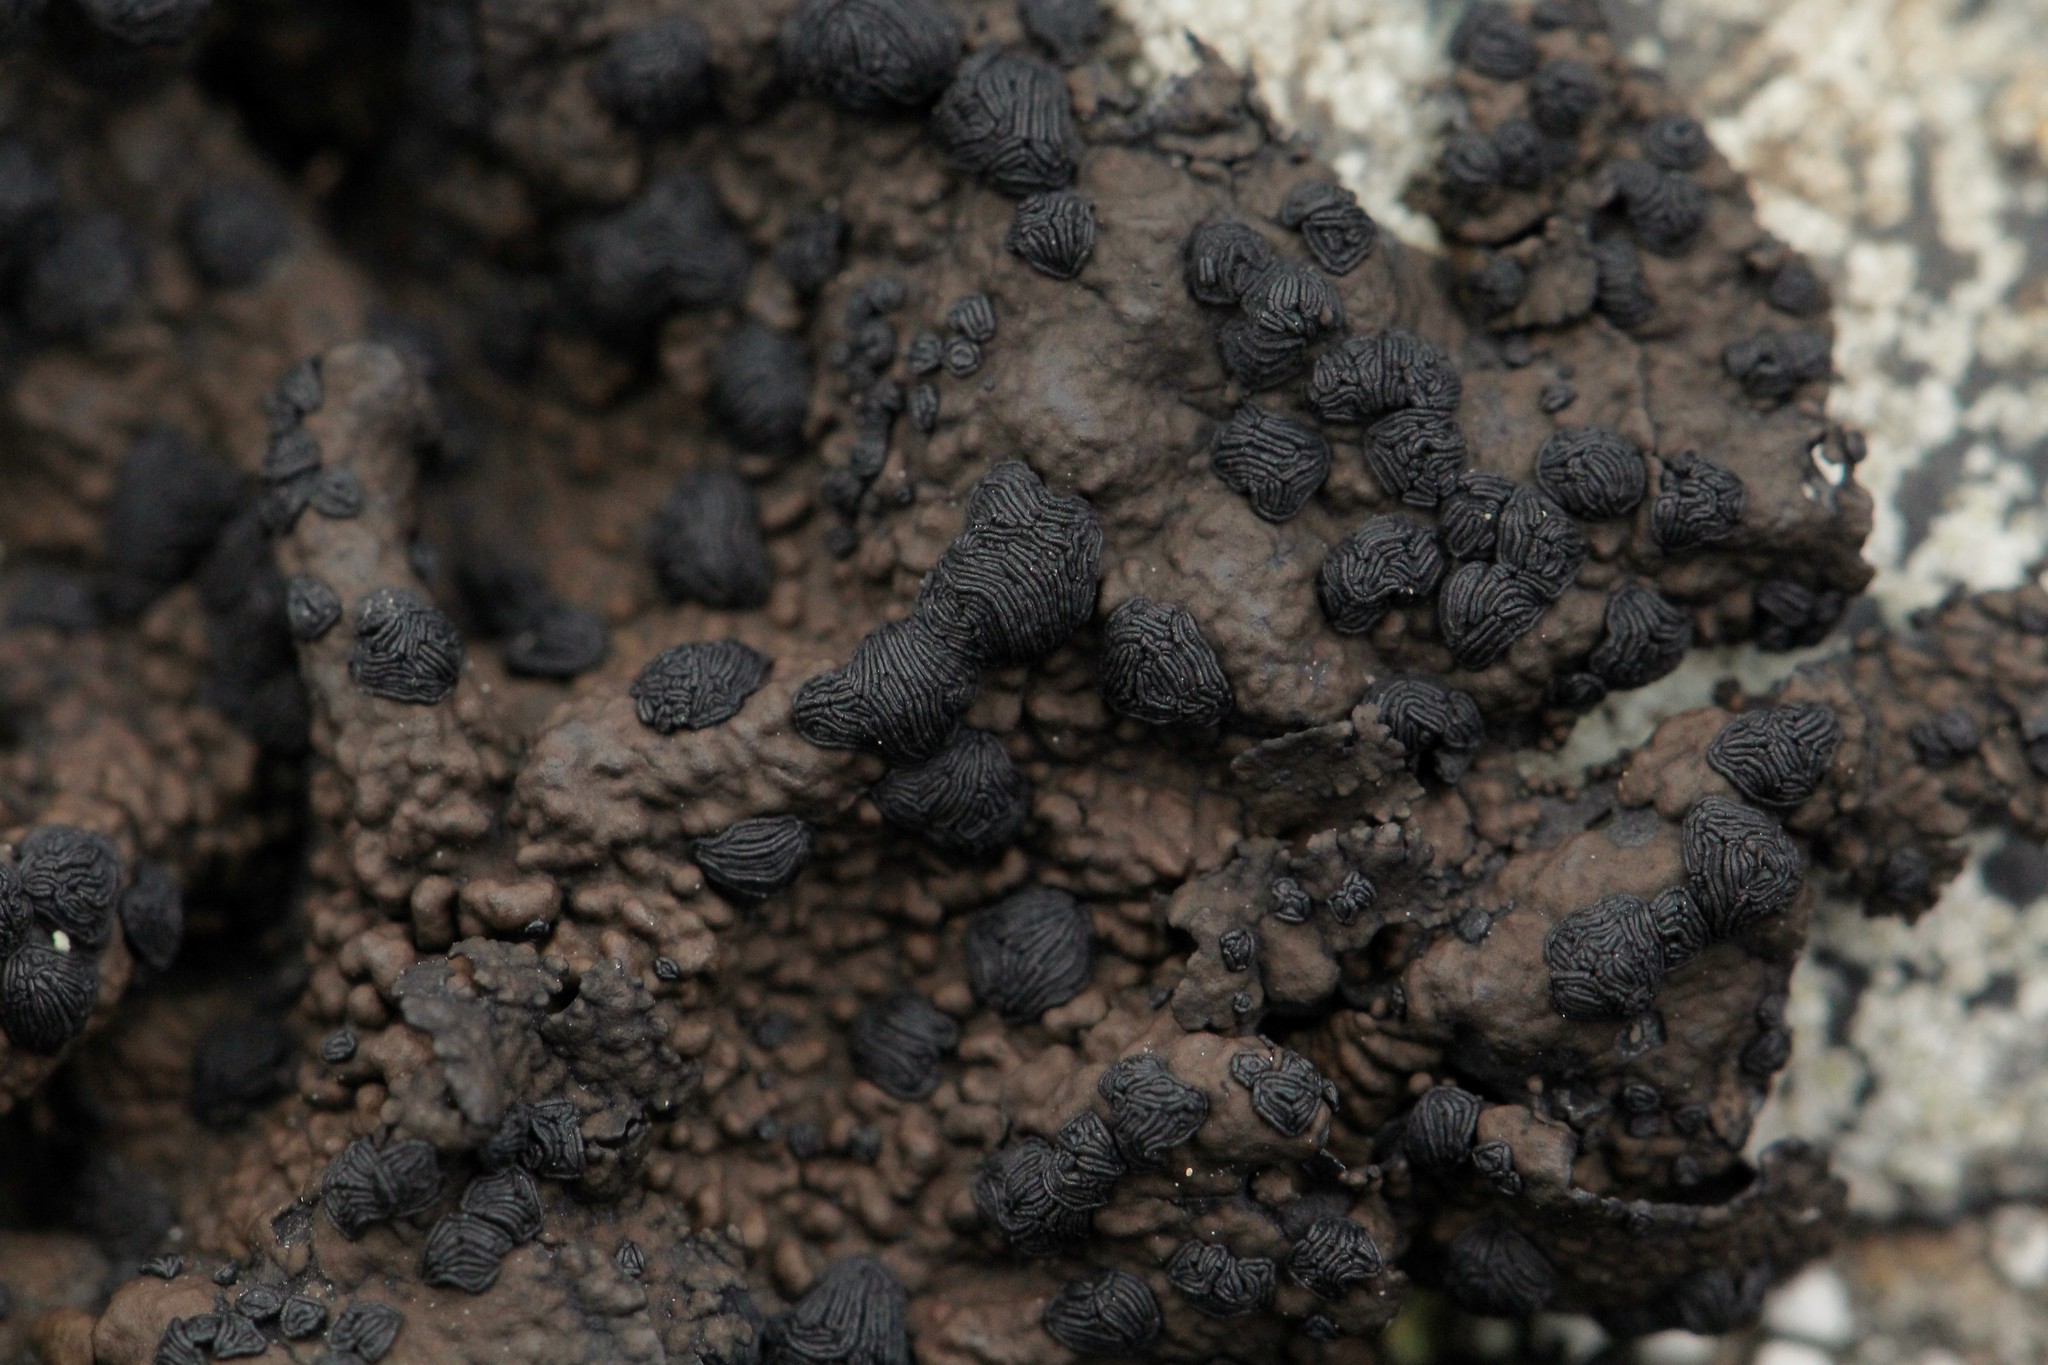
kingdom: Fungi
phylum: Ascomycota
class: Lecanoromycetes
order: Umbilicariales
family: Umbilicariaceae
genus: Umbilicaria
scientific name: Umbilicaria hyperborea
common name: Blistered rock tripe
